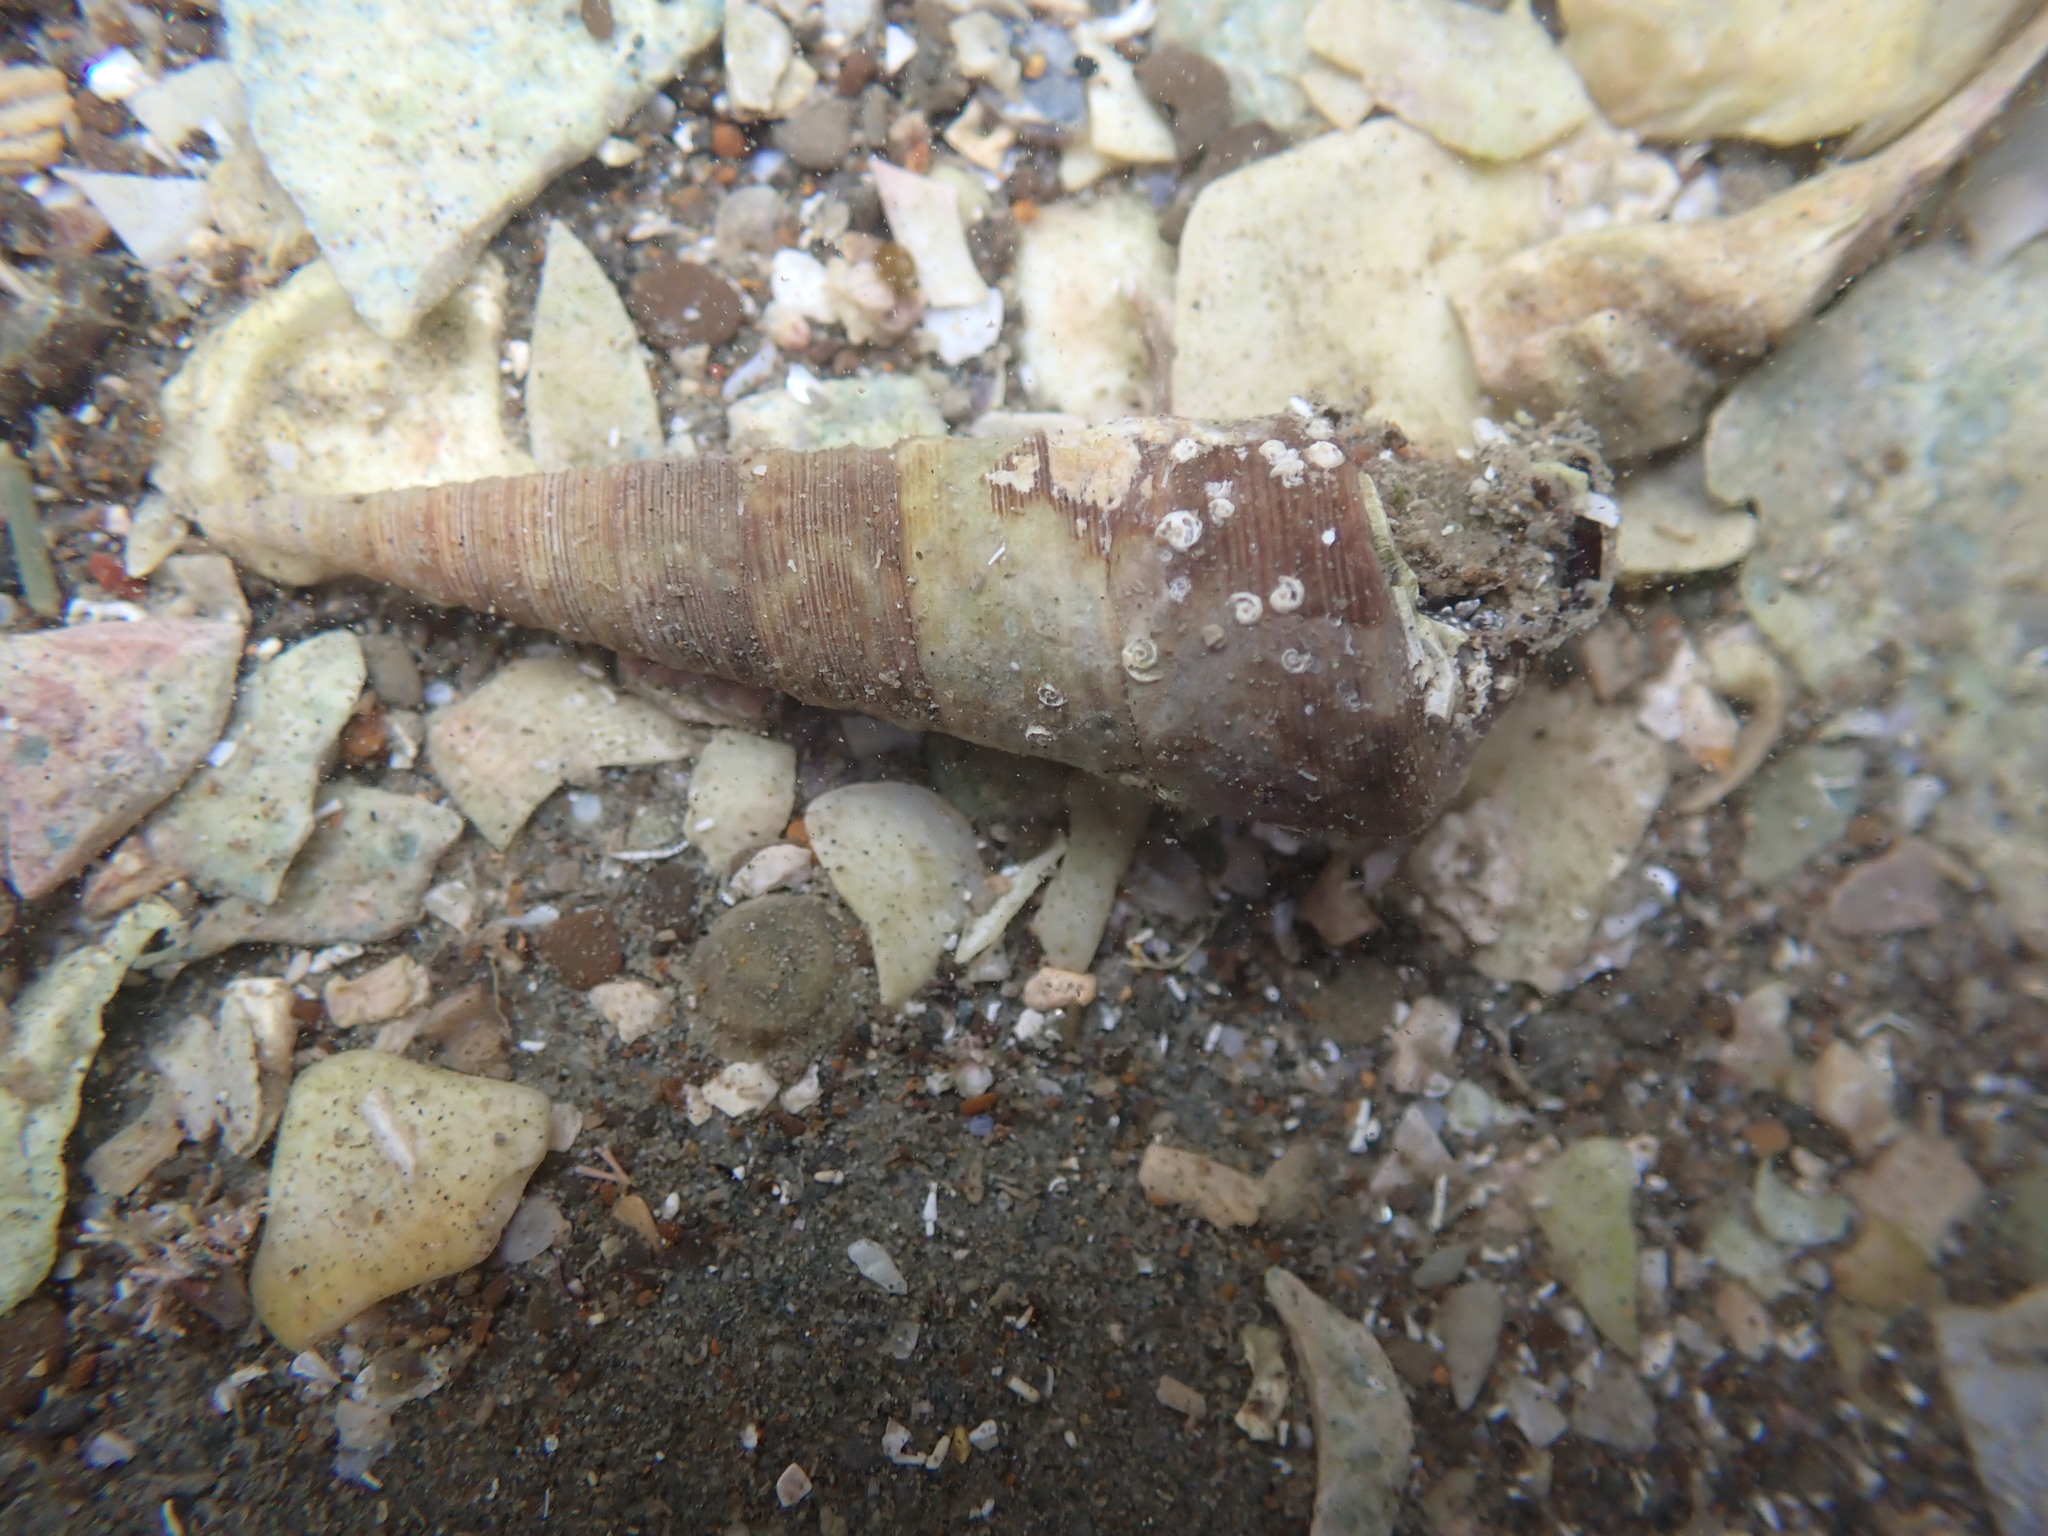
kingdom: Animalia
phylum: Mollusca
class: Gastropoda
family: Turritellidae
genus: Maoricolpus
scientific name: Maoricolpus roseus
